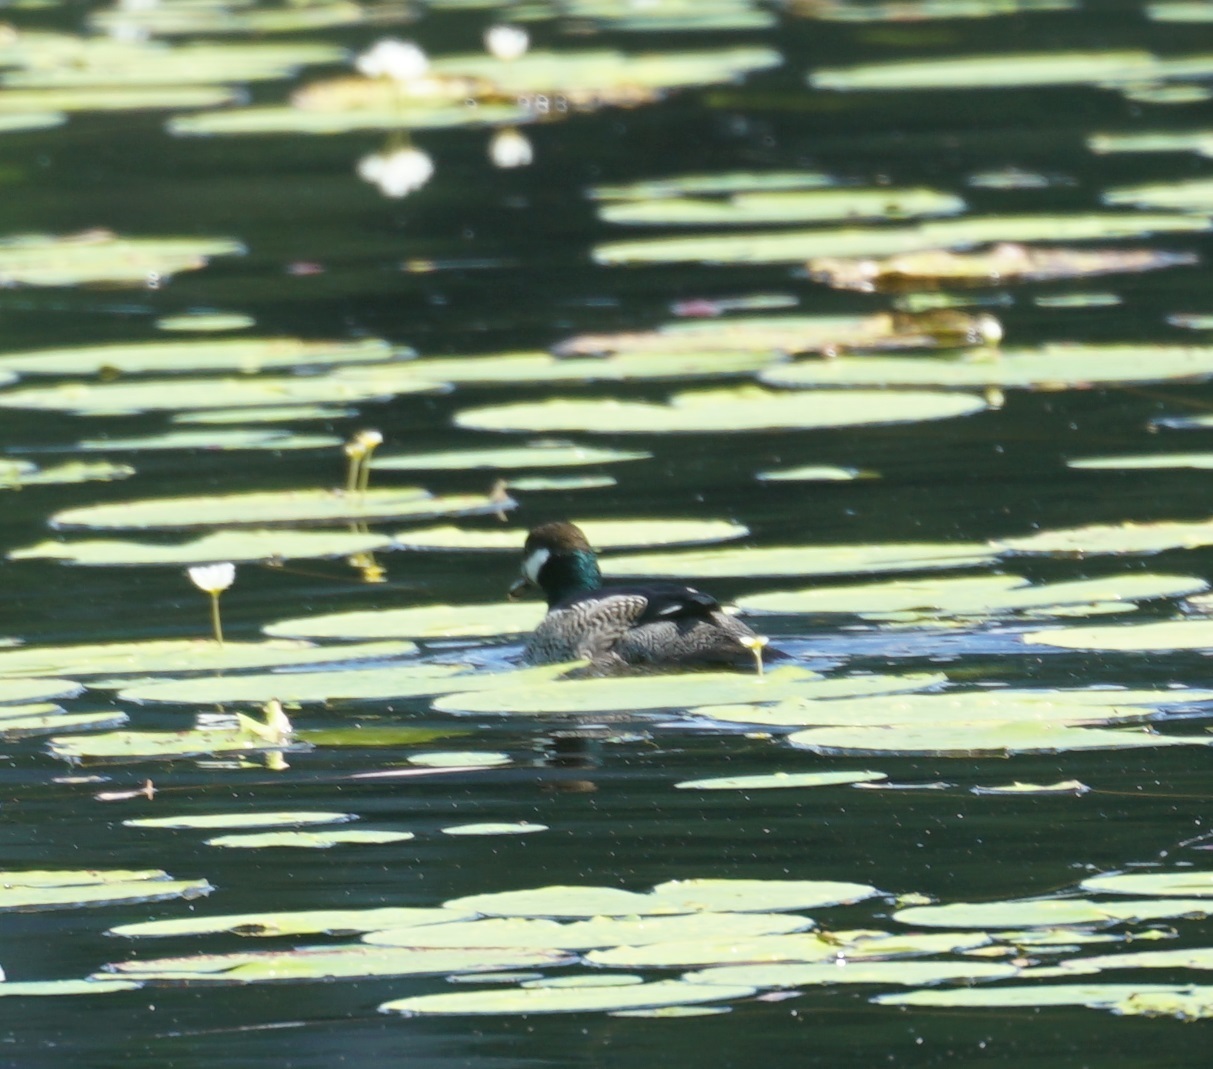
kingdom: Animalia
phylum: Chordata
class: Aves
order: Anseriformes
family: Anatidae
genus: Nettapus
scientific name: Nettapus pulchellus
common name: Green pygmy-goose
